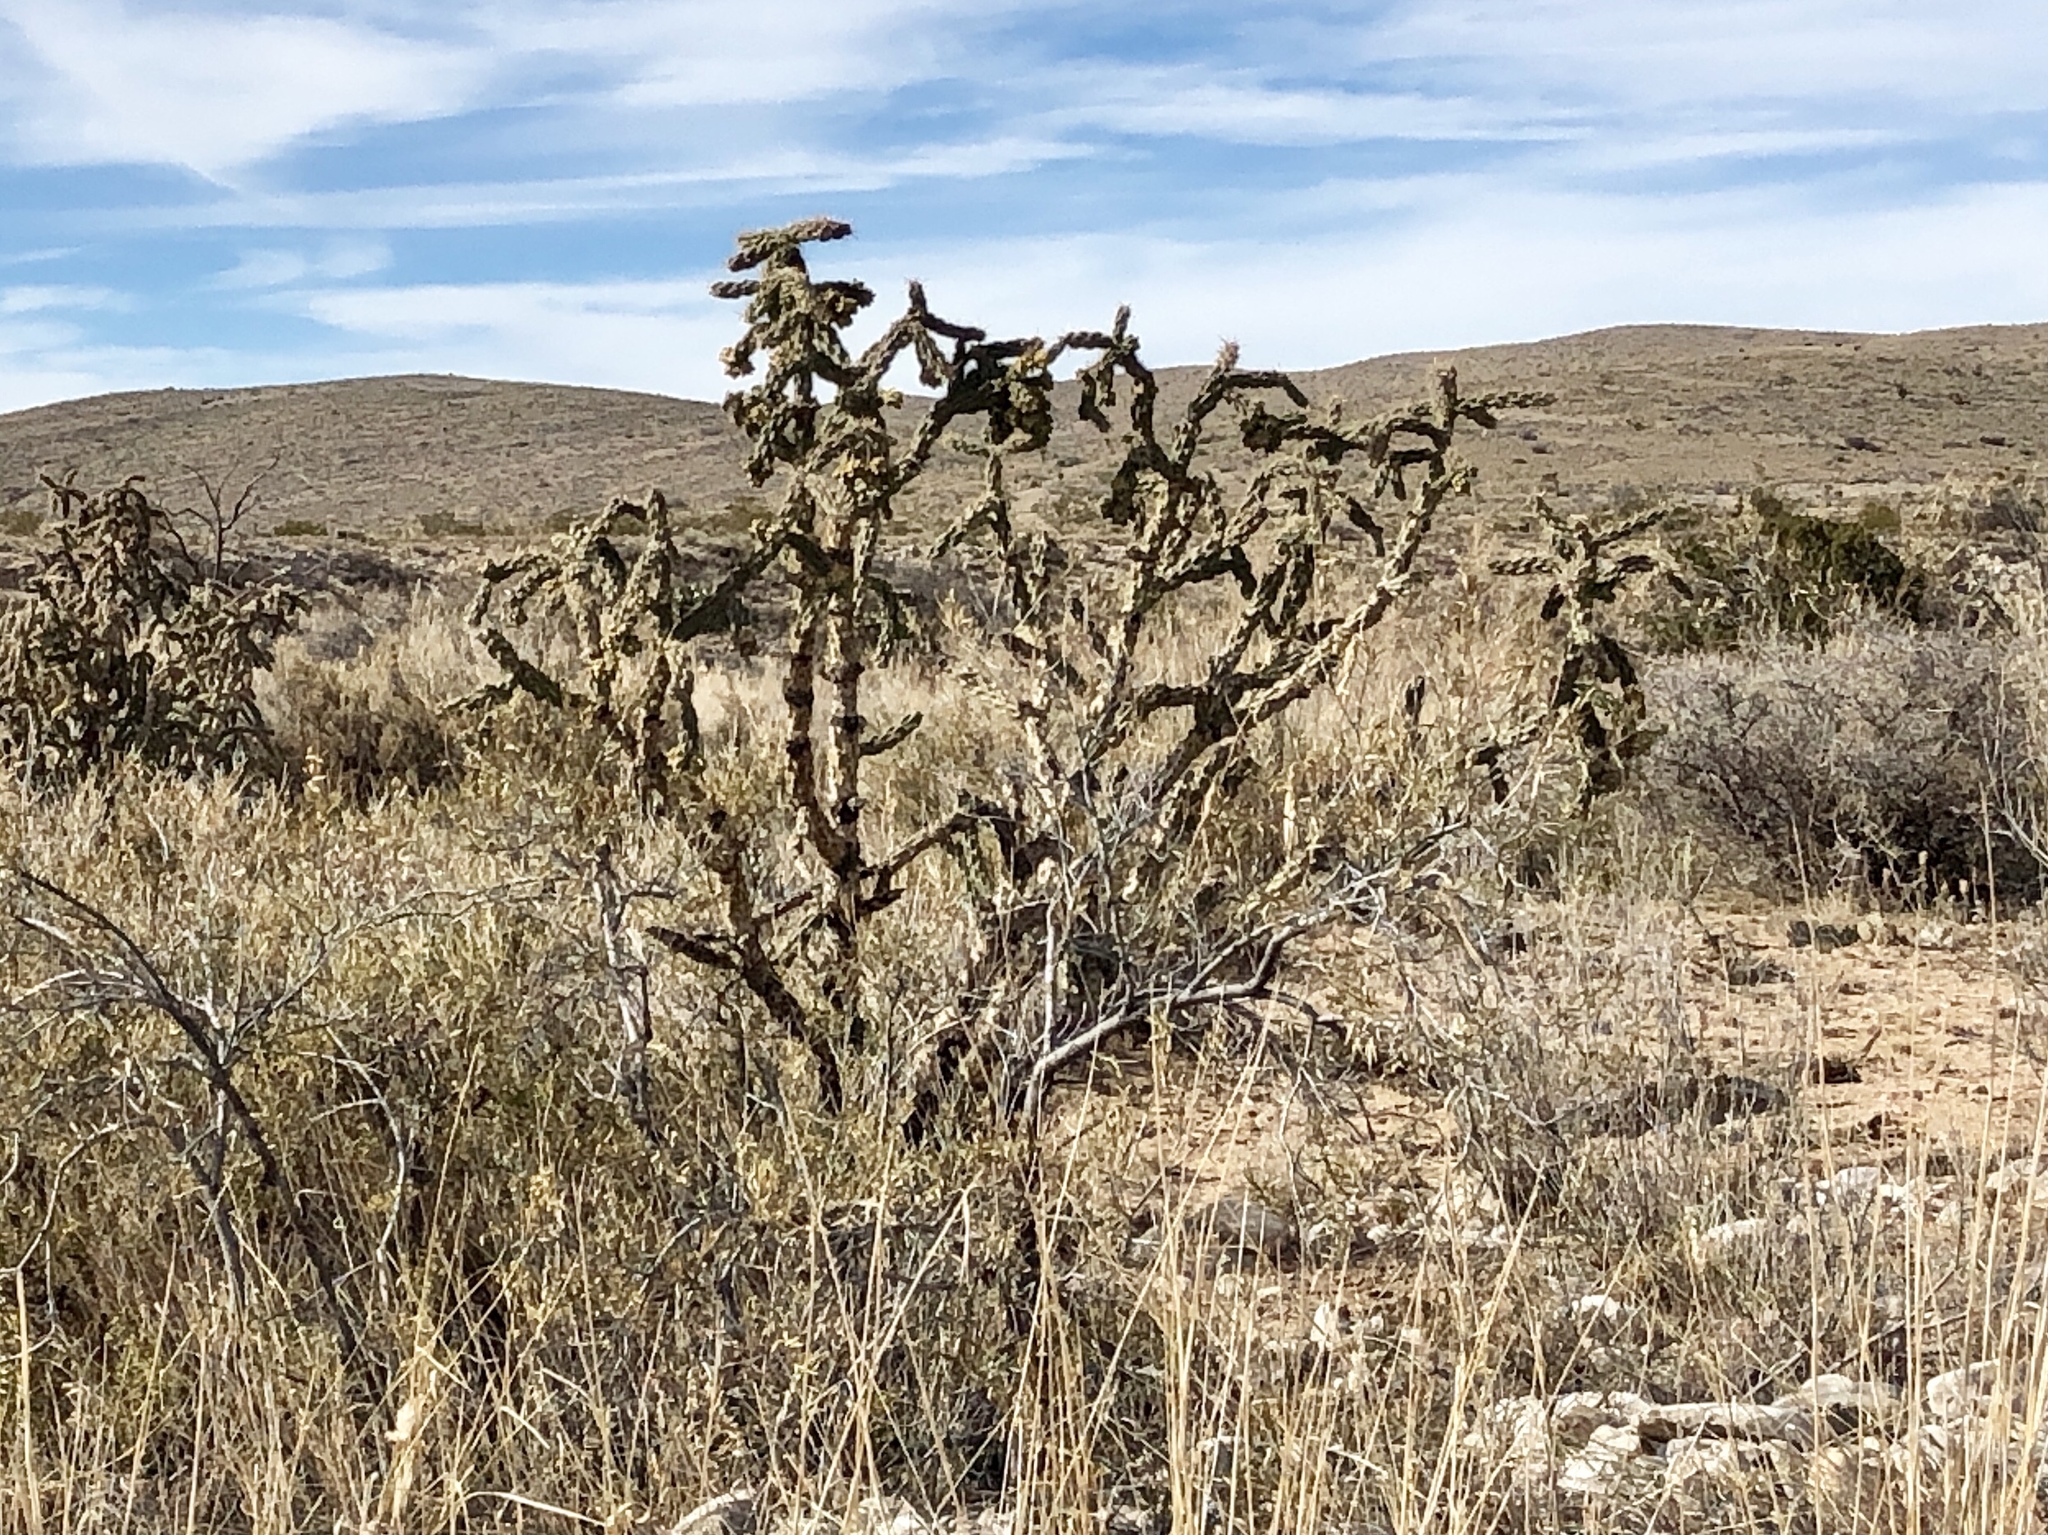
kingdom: Plantae
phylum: Tracheophyta
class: Magnoliopsida
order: Caryophyllales
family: Cactaceae
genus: Cylindropuntia
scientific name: Cylindropuntia imbricata
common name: Candelabrum cactus
